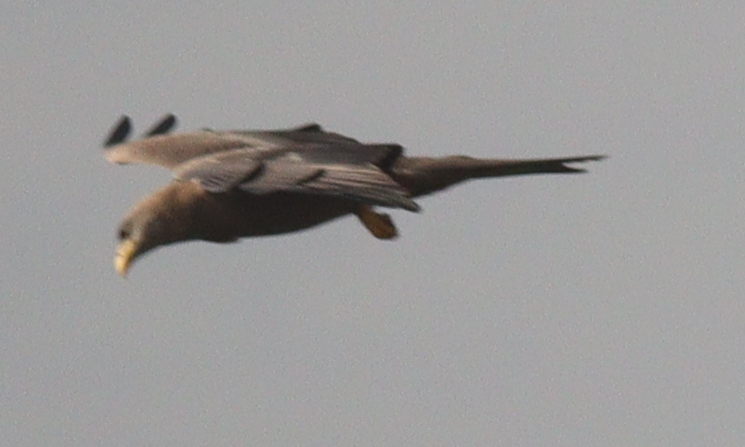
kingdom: Animalia
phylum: Chordata
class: Aves
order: Accipitriformes
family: Accipitridae
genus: Milvus
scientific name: Milvus migrans
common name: Black kite
